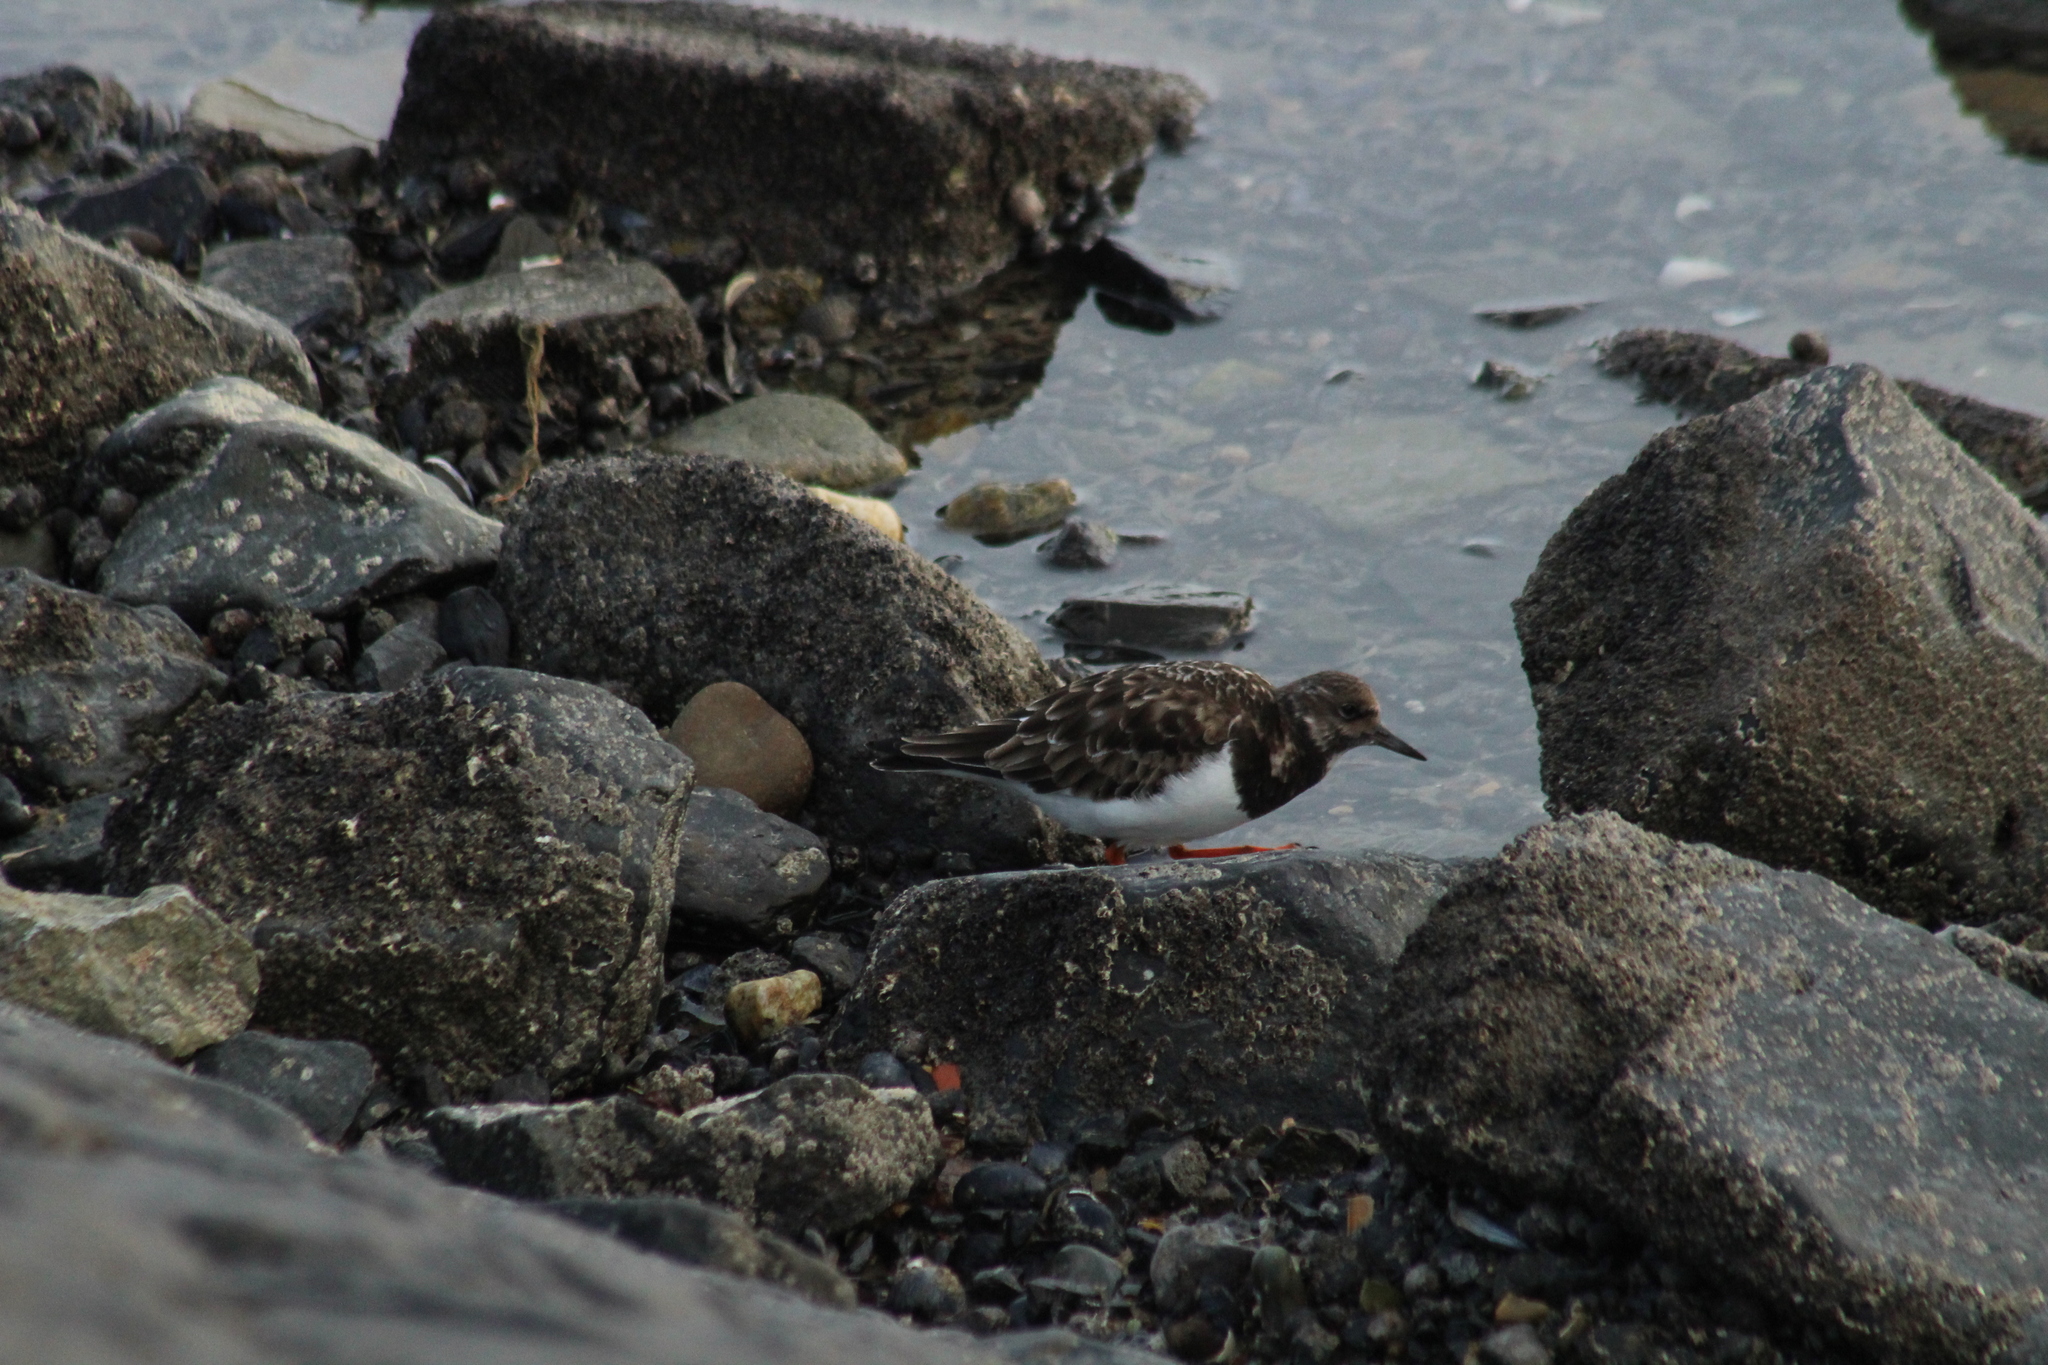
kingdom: Animalia
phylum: Chordata
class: Aves
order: Charadriiformes
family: Scolopacidae
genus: Arenaria
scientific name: Arenaria interpres
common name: Ruddy turnstone
